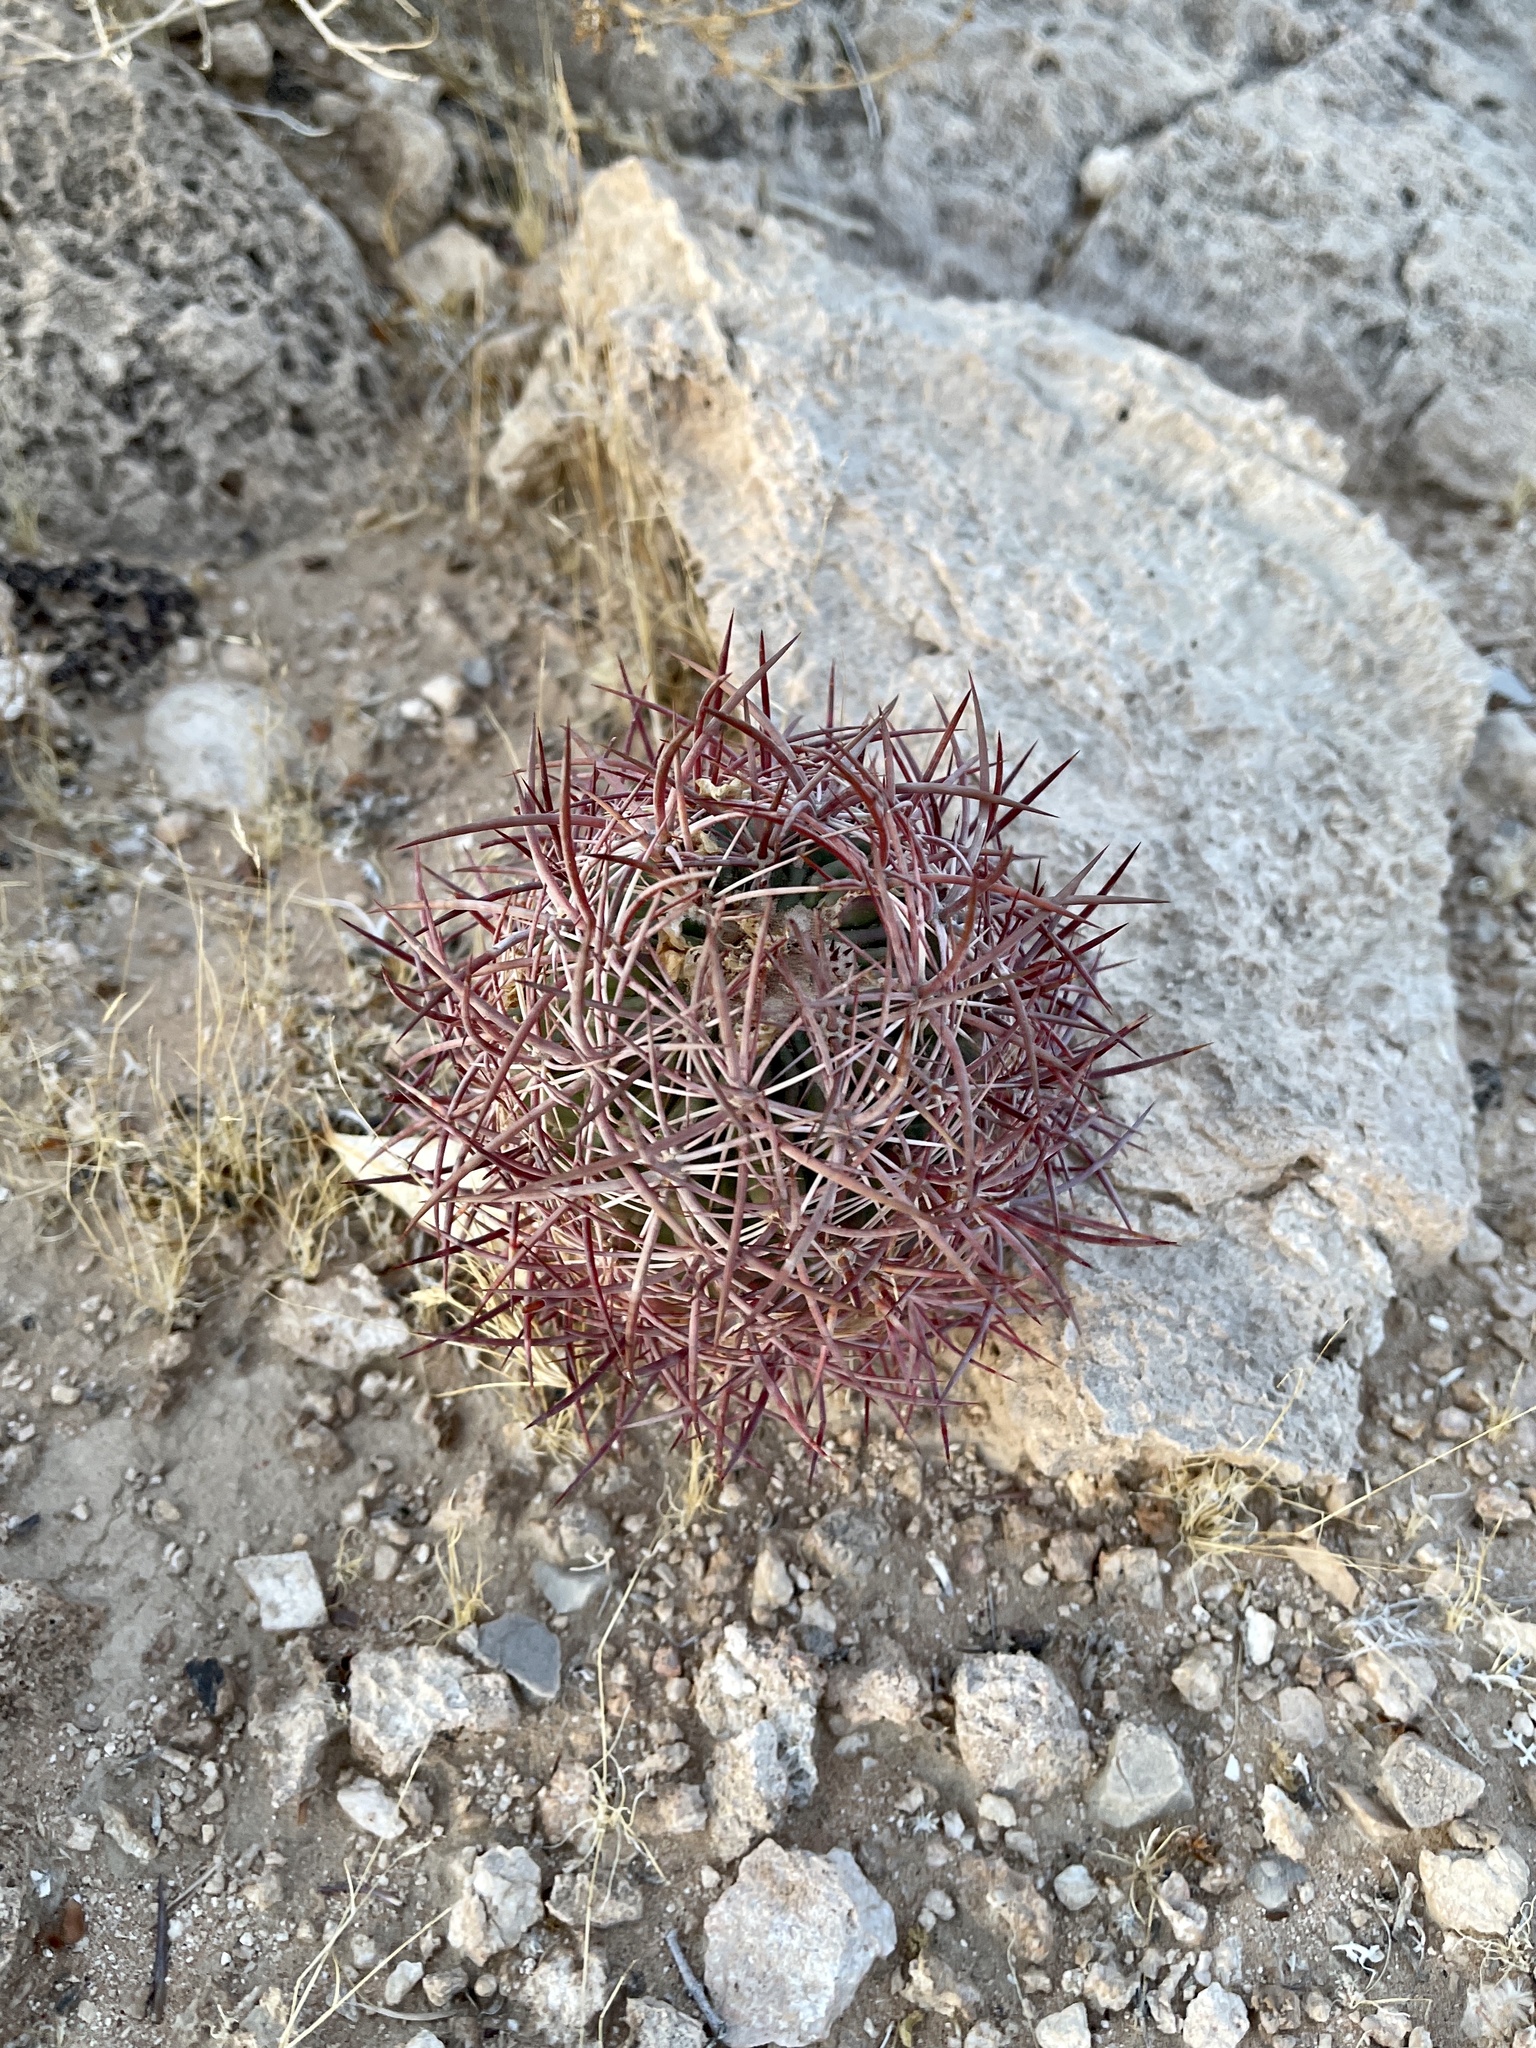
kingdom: Plantae
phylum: Tracheophyta
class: Magnoliopsida
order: Caryophyllales
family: Cactaceae
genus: Sclerocactus
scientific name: Sclerocactus johnsonii
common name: Eight-spine fishhook cactus
